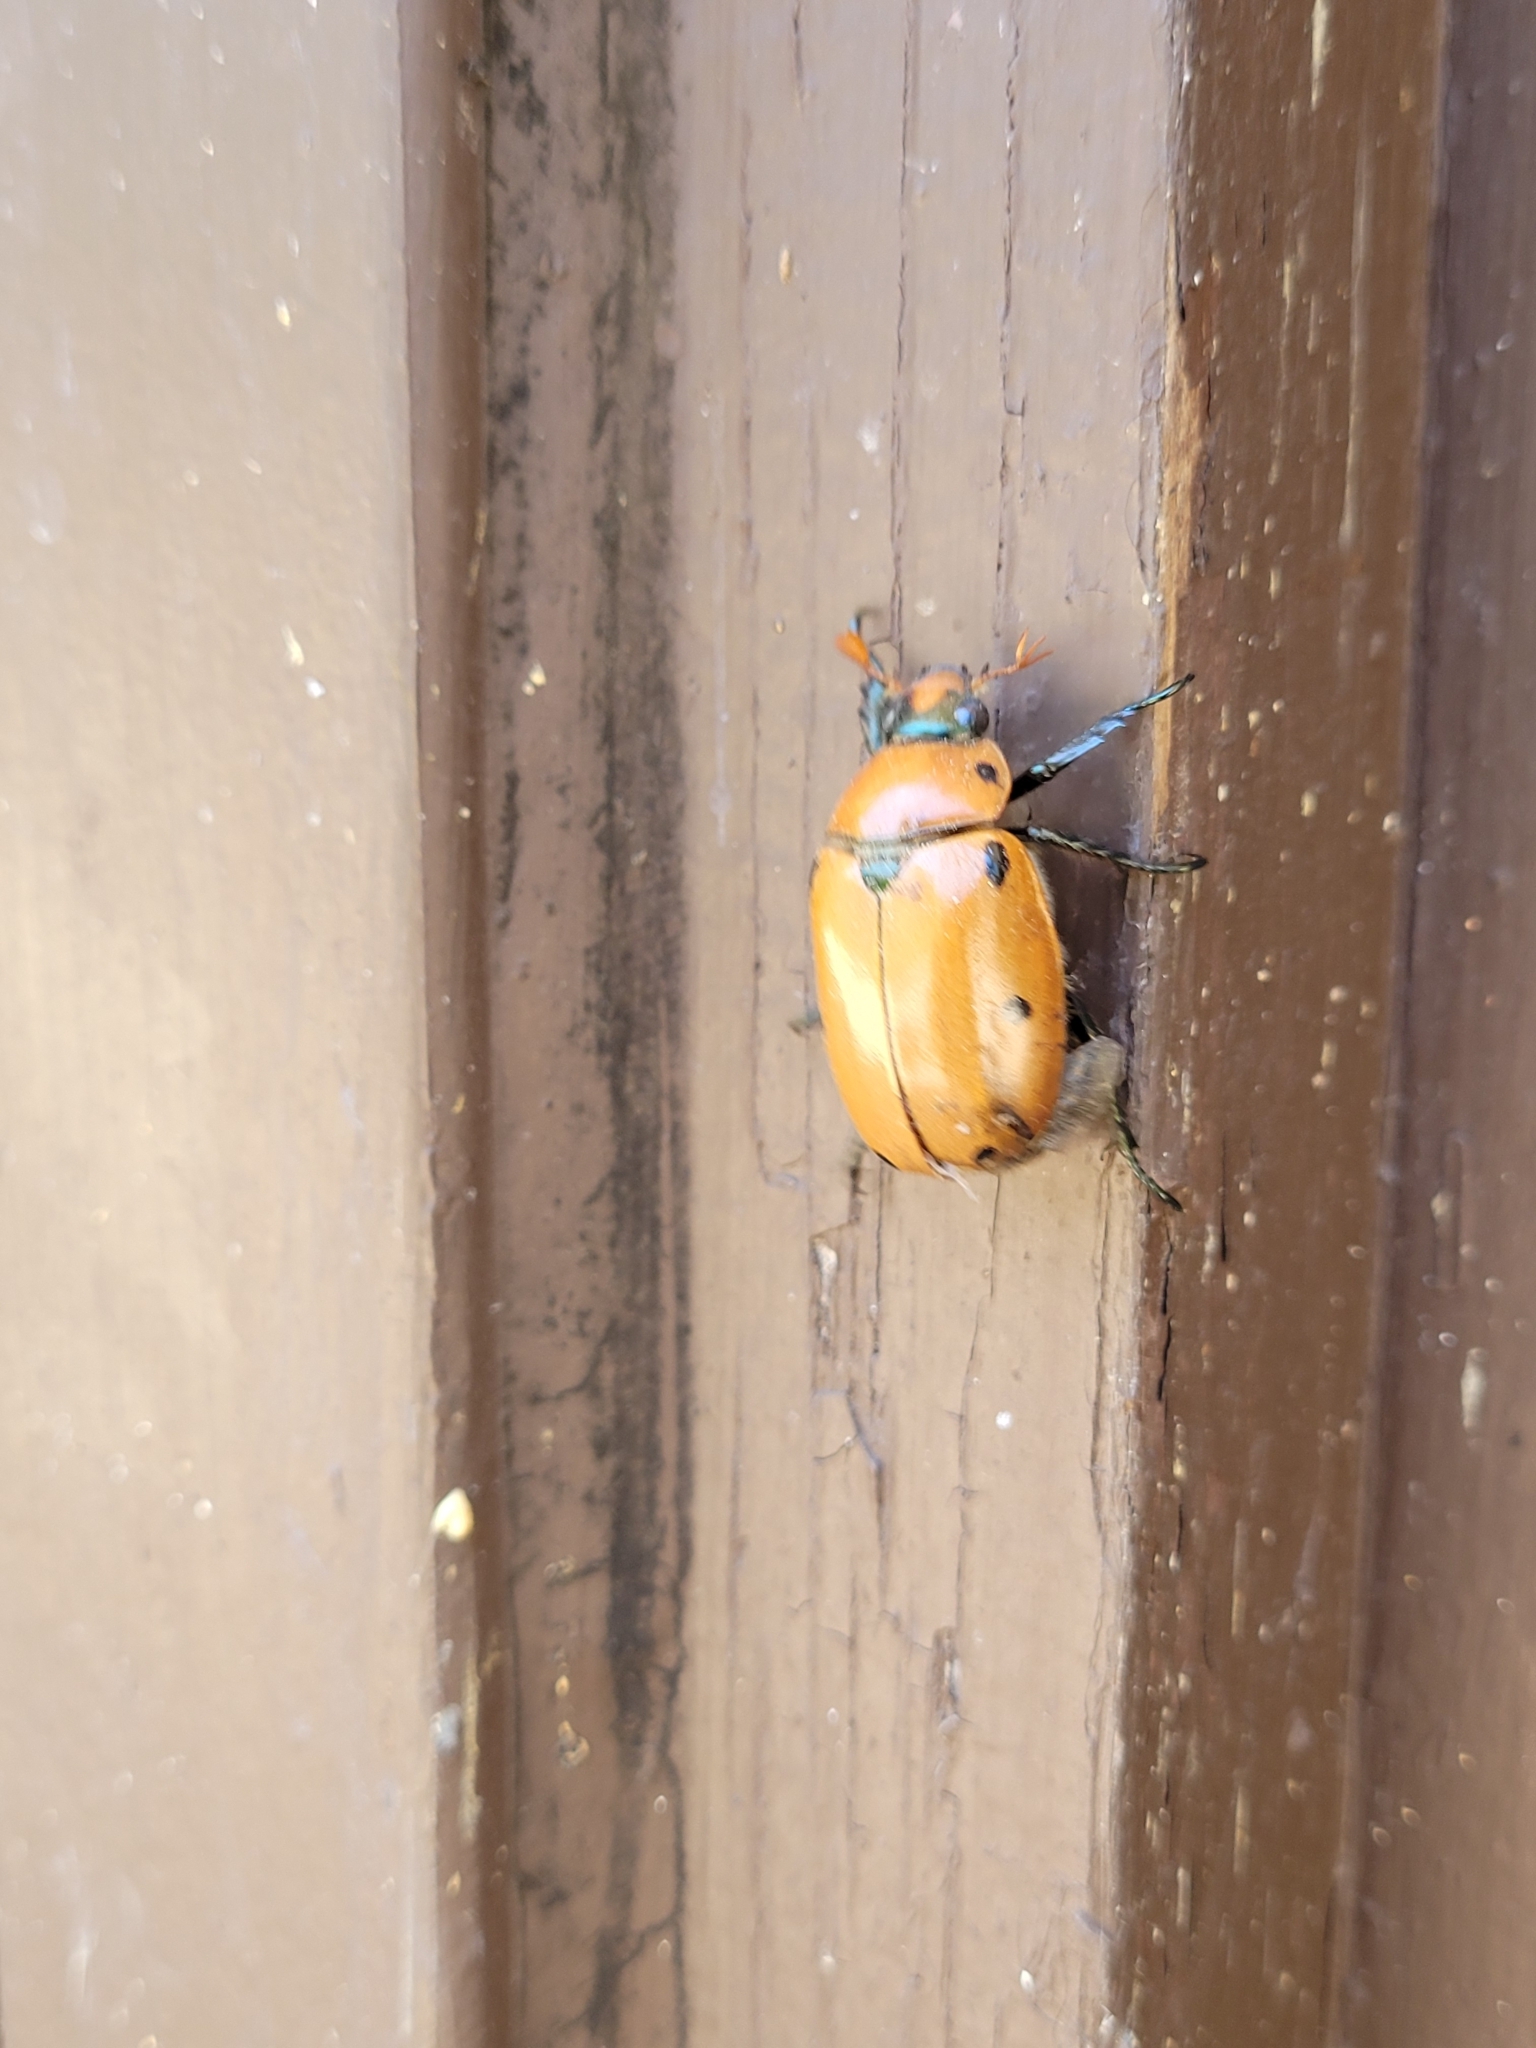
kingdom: Animalia
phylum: Arthropoda
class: Insecta
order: Coleoptera
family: Scarabaeidae
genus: Pelidnota
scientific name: Pelidnota punctata
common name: Grapevine beetle
